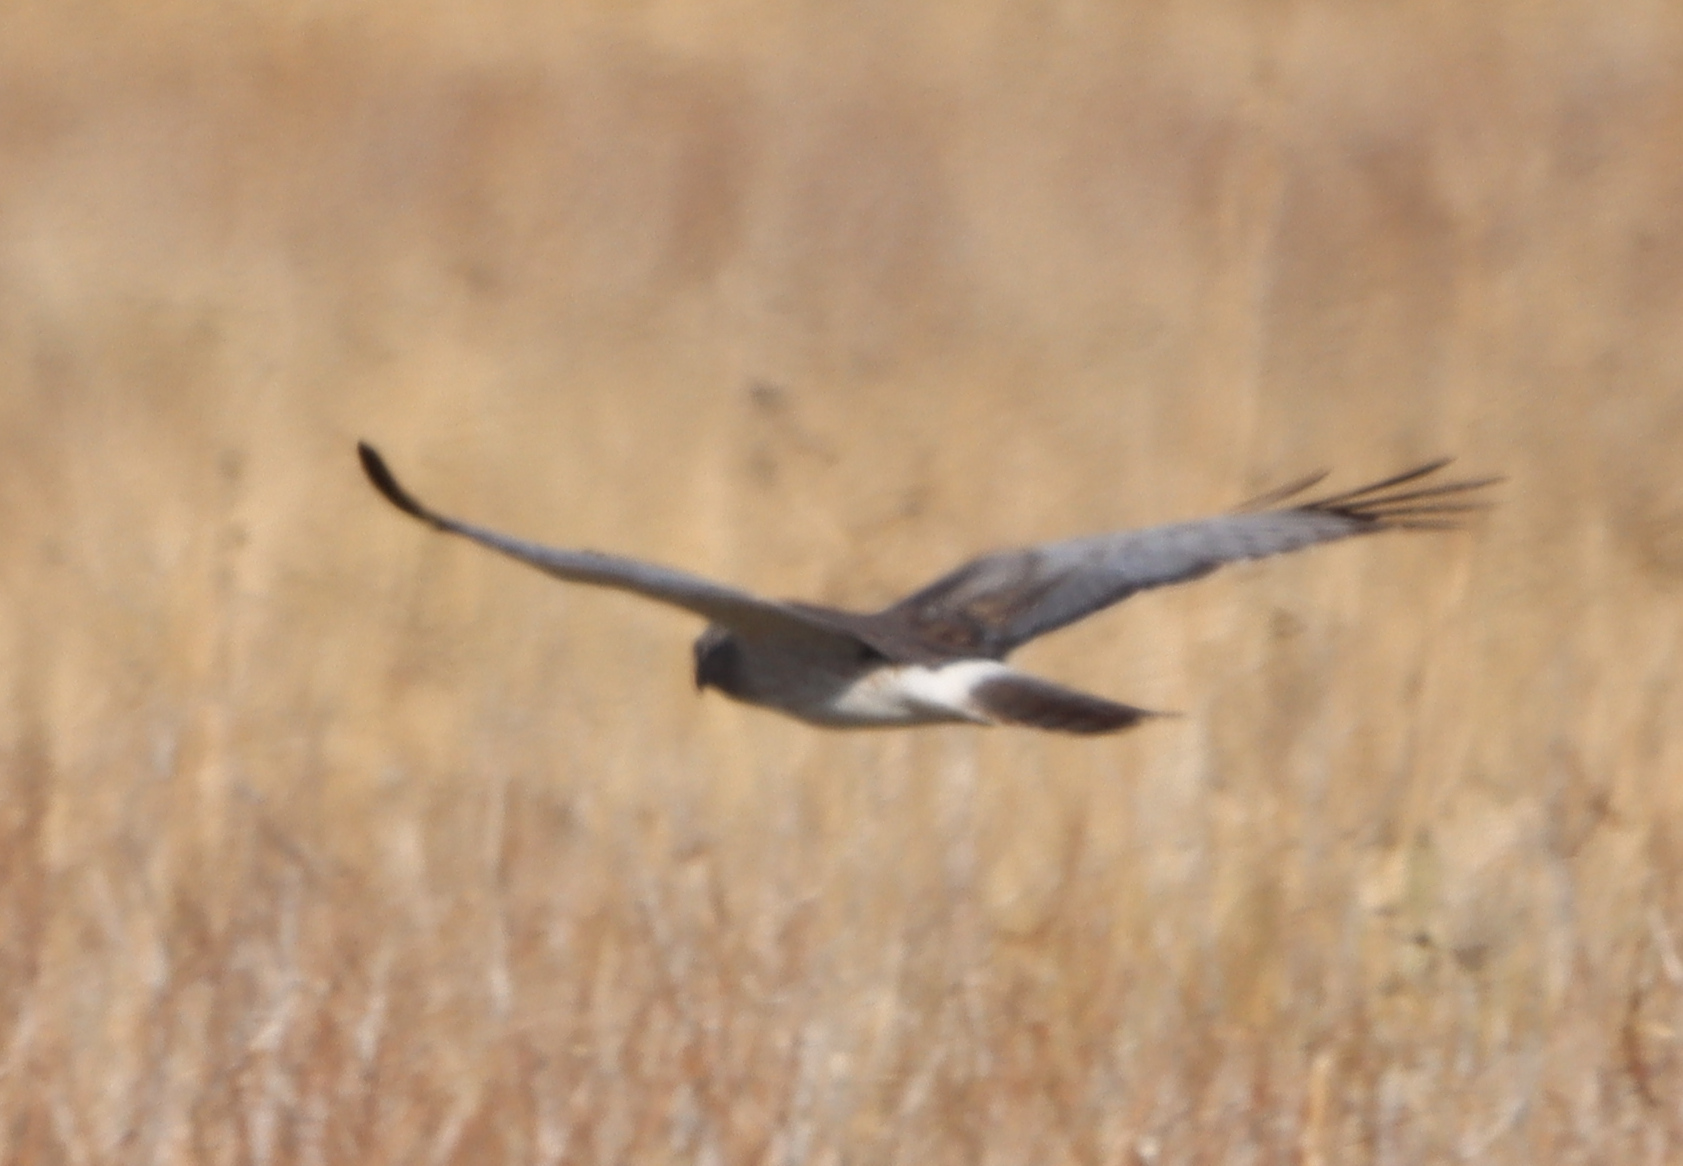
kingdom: Animalia
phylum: Chordata
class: Aves
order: Accipitriformes
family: Accipitridae
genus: Circus
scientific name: Circus cyaneus
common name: Hen harrier
